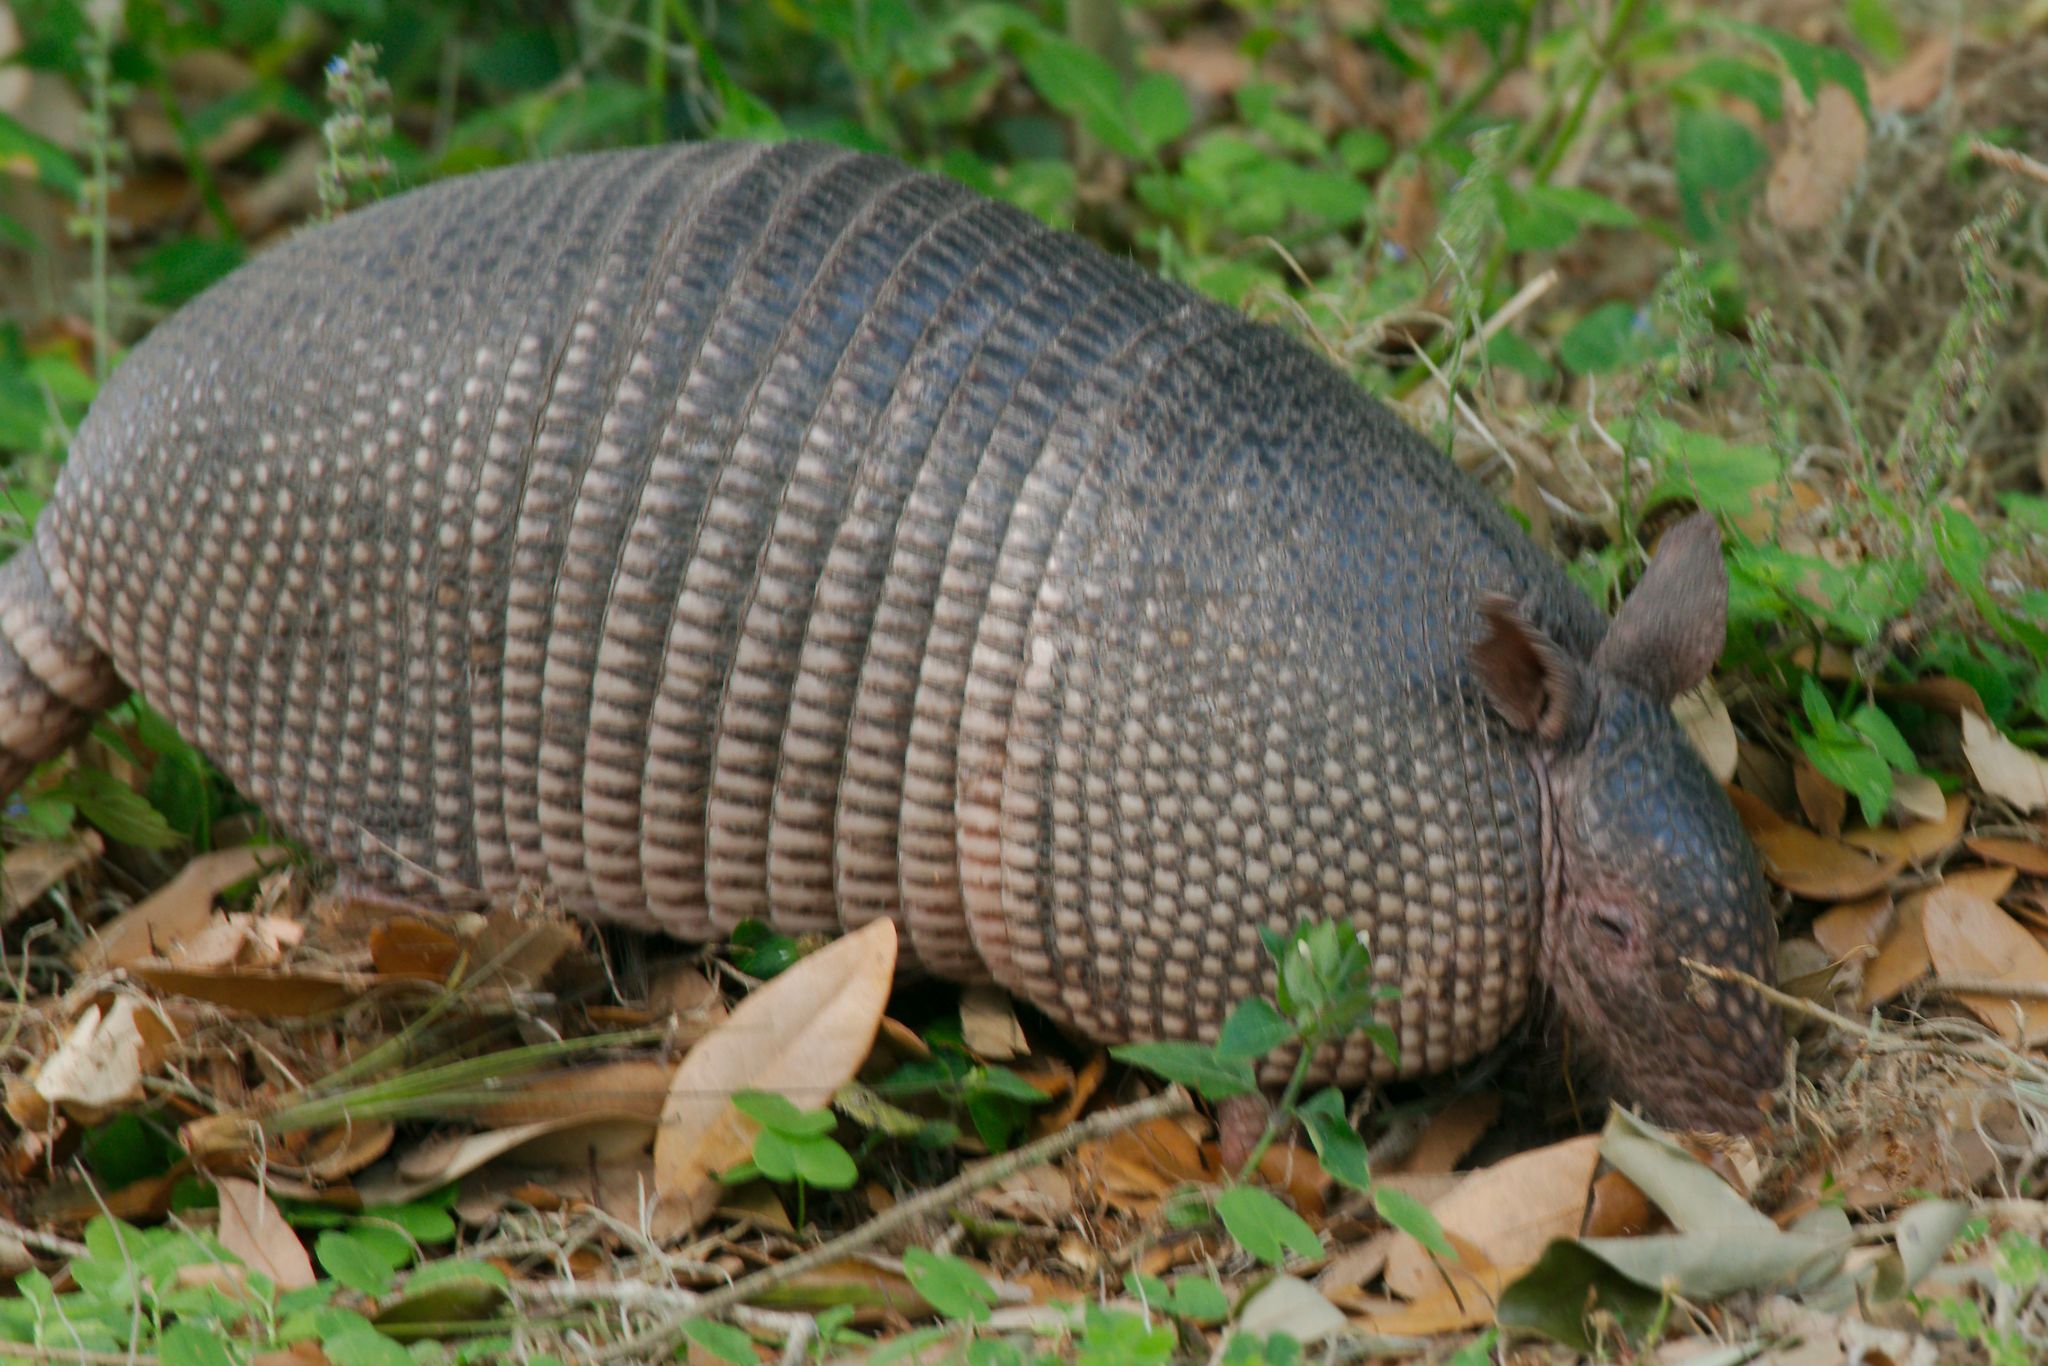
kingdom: Animalia
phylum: Chordata
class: Mammalia
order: Cingulata
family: Dasypodidae
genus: Dasypus
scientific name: Dasypus novemcinctus
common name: Nine-banded armadillo
